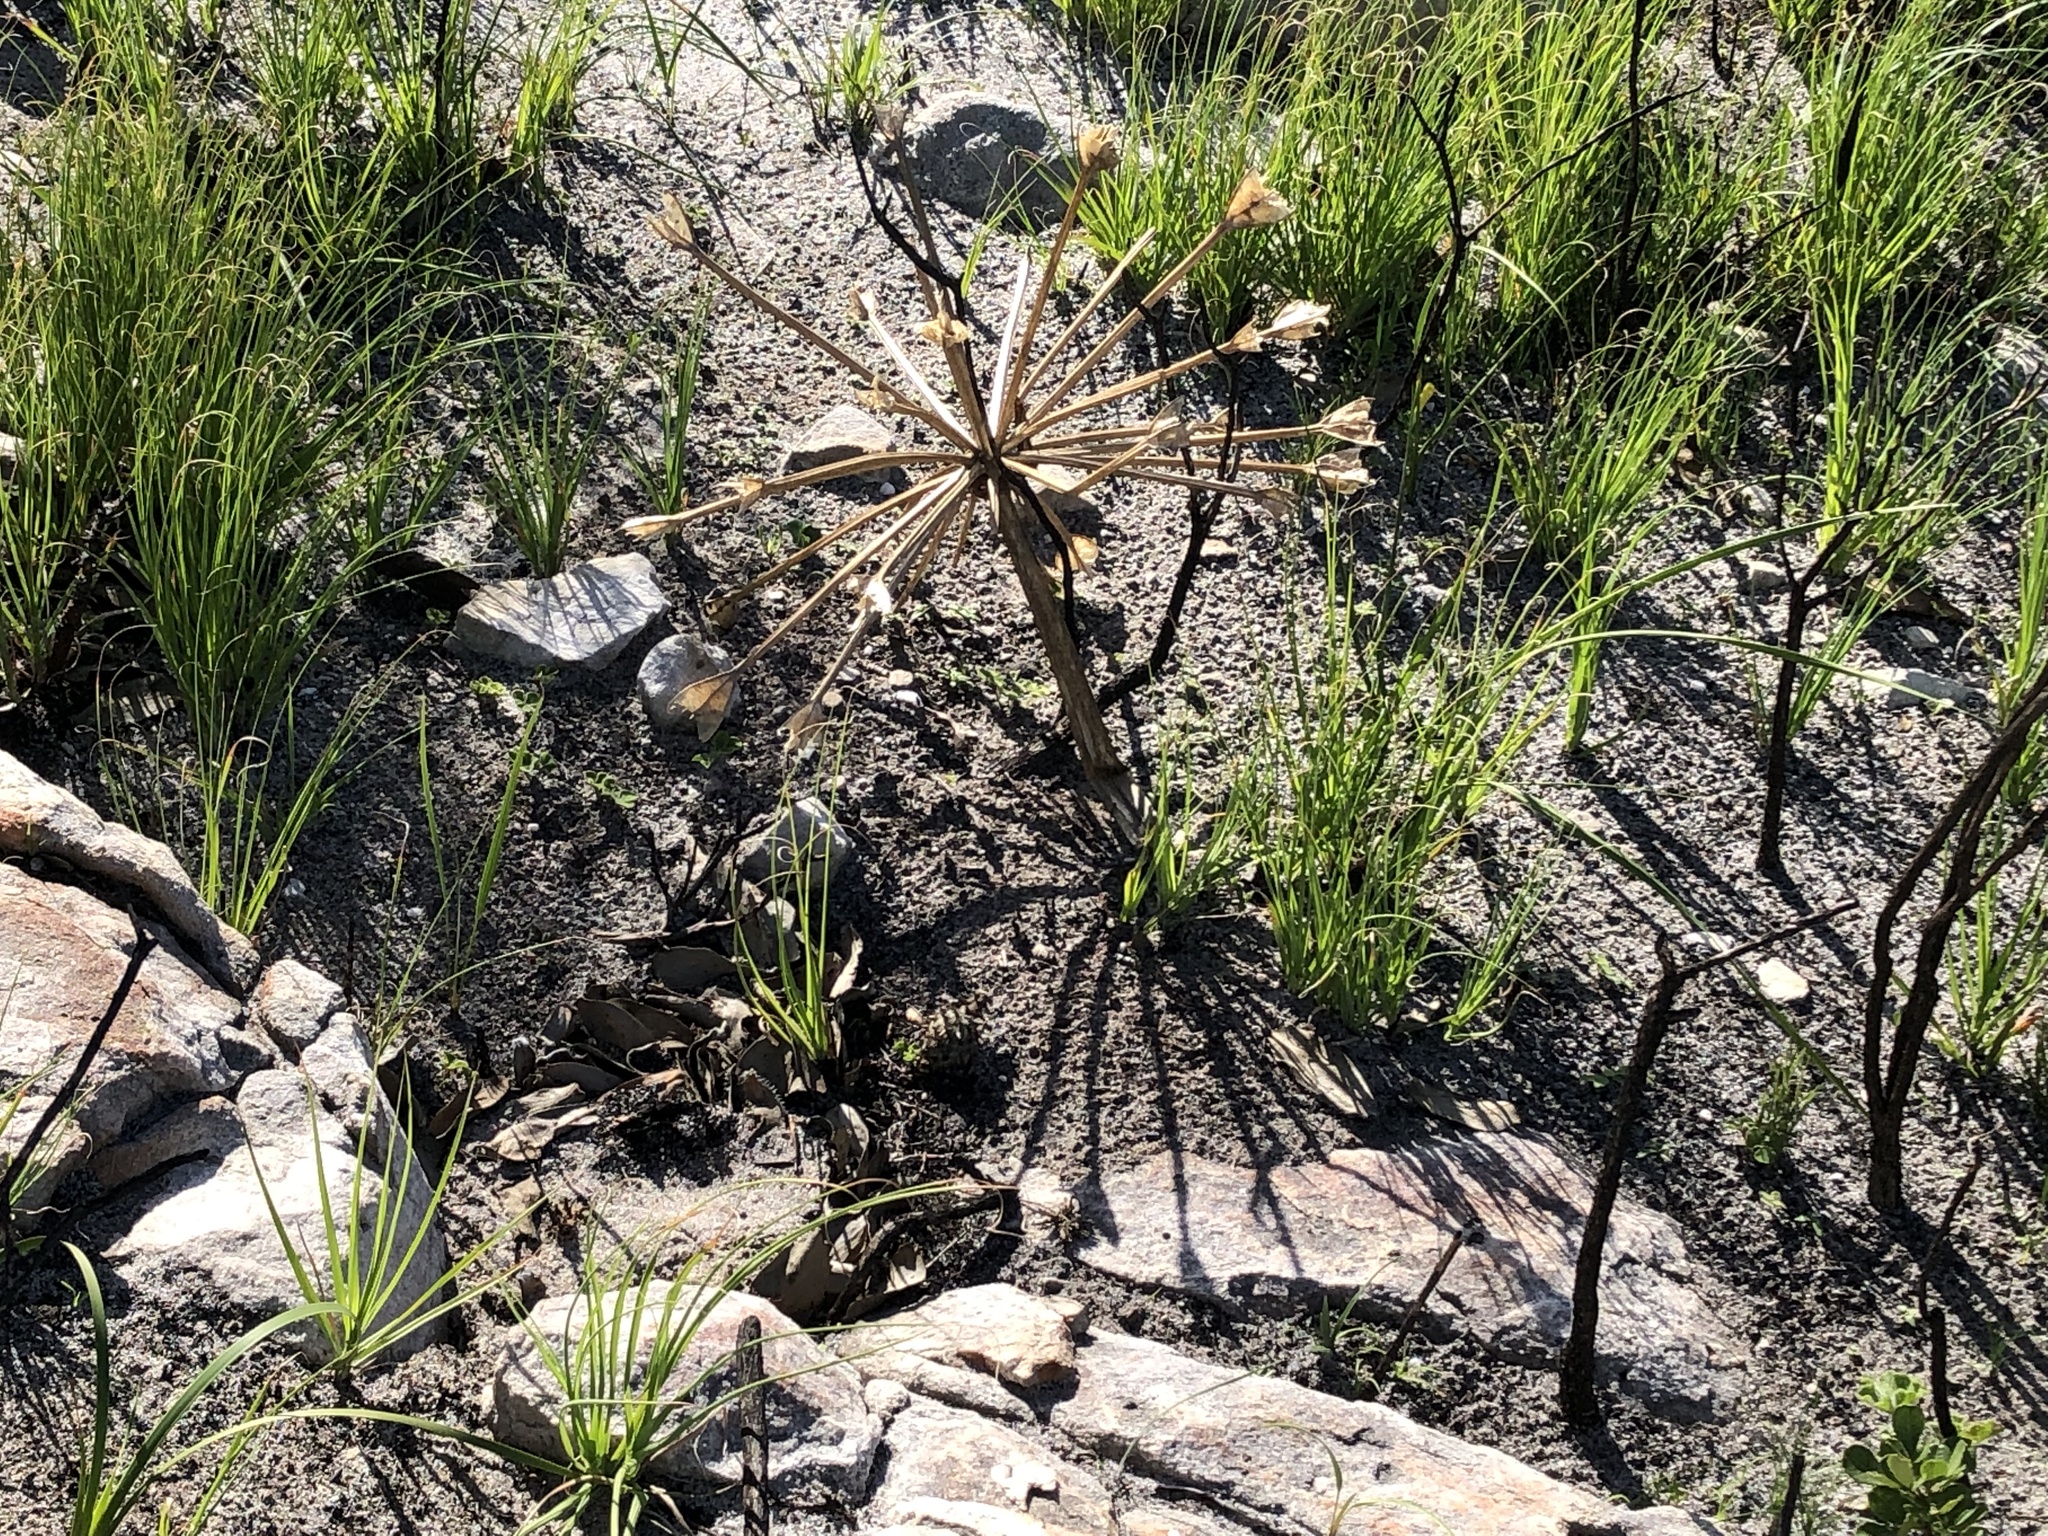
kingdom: Plantae
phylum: Tracheophyta
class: Liliopsida
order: Asparagales
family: Amaryllidaceae
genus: Brunsvigia
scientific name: Brunsvigia orientalis
